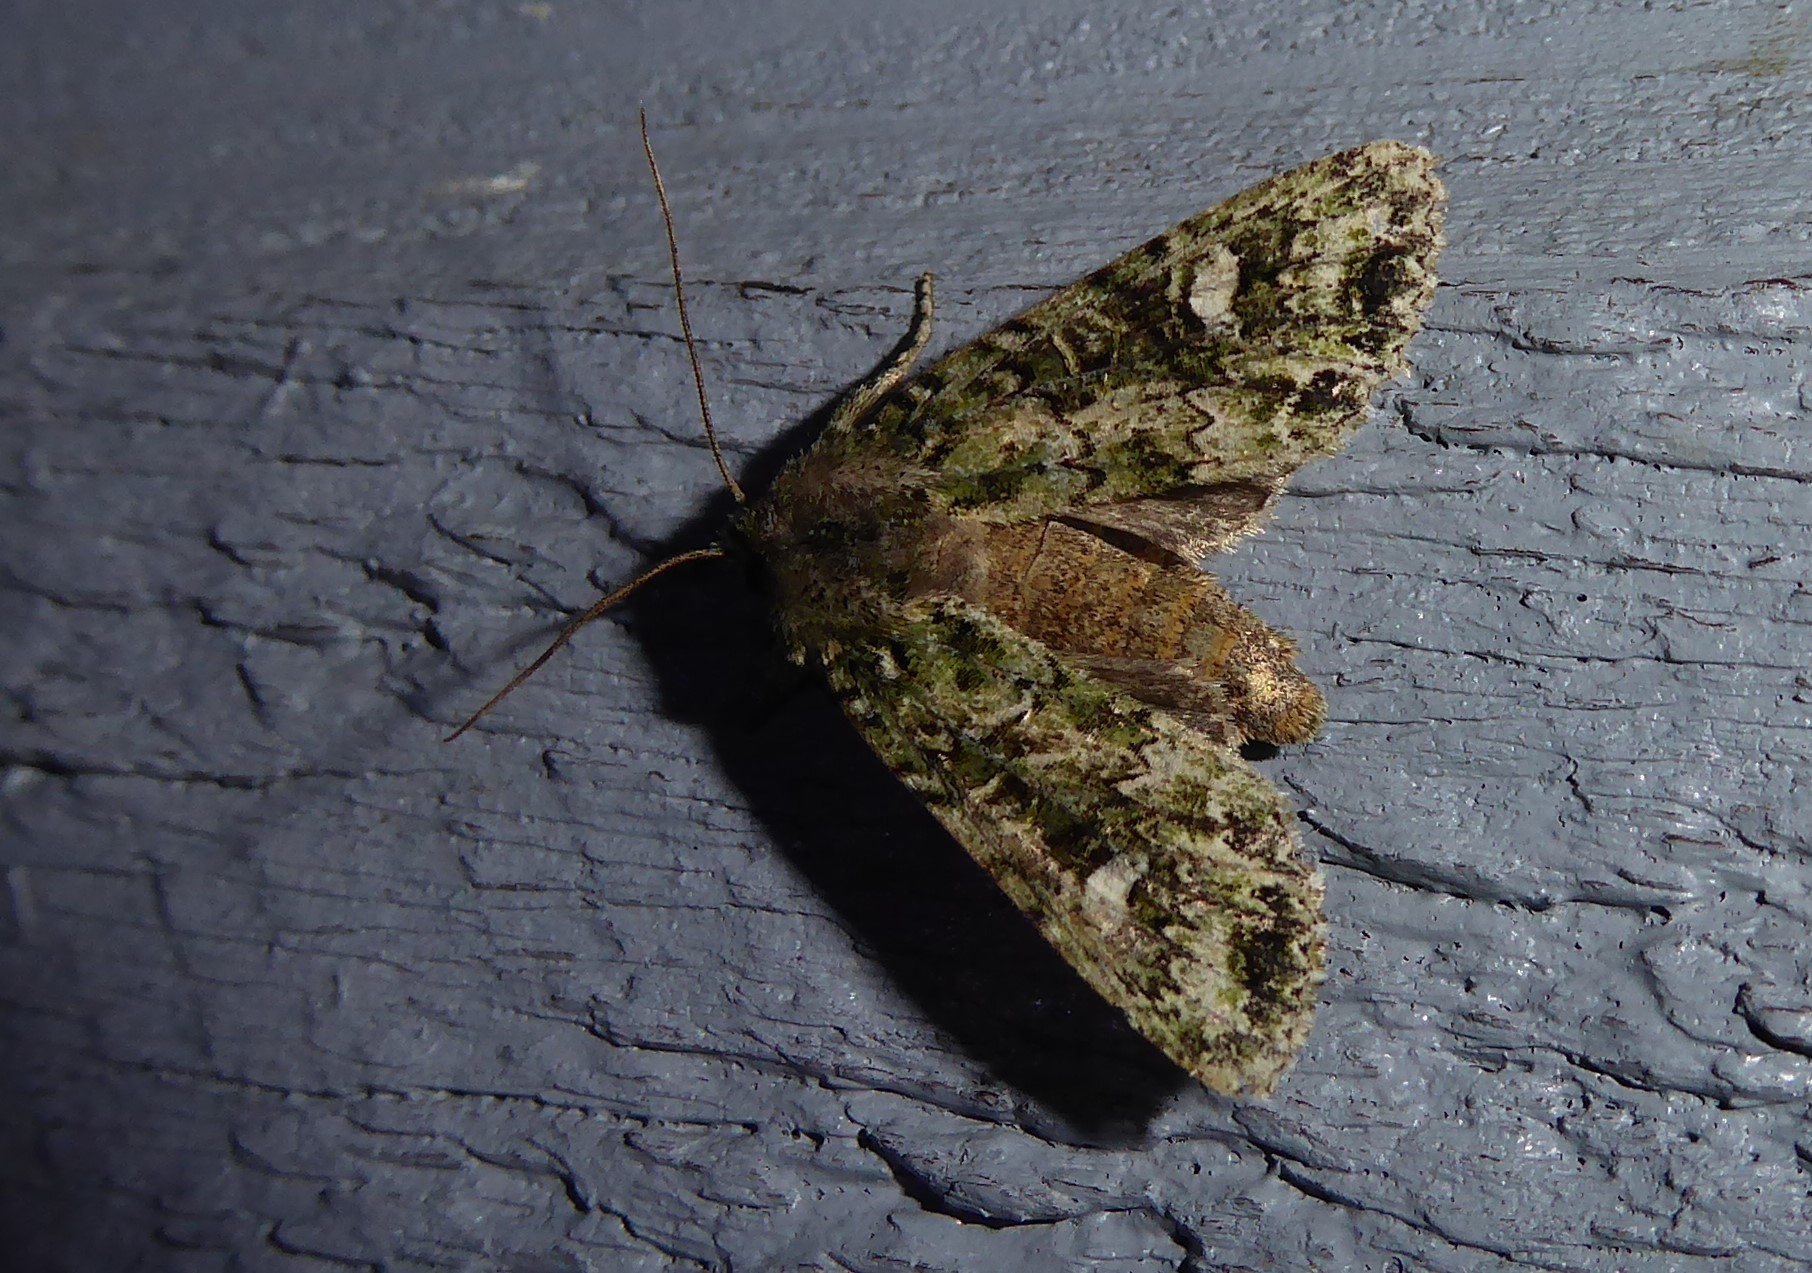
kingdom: Animalia
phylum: Arthropoda
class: Insecta
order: Lepidoptera
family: Noctuidae
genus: Ichneutica
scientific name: Ichneutica
